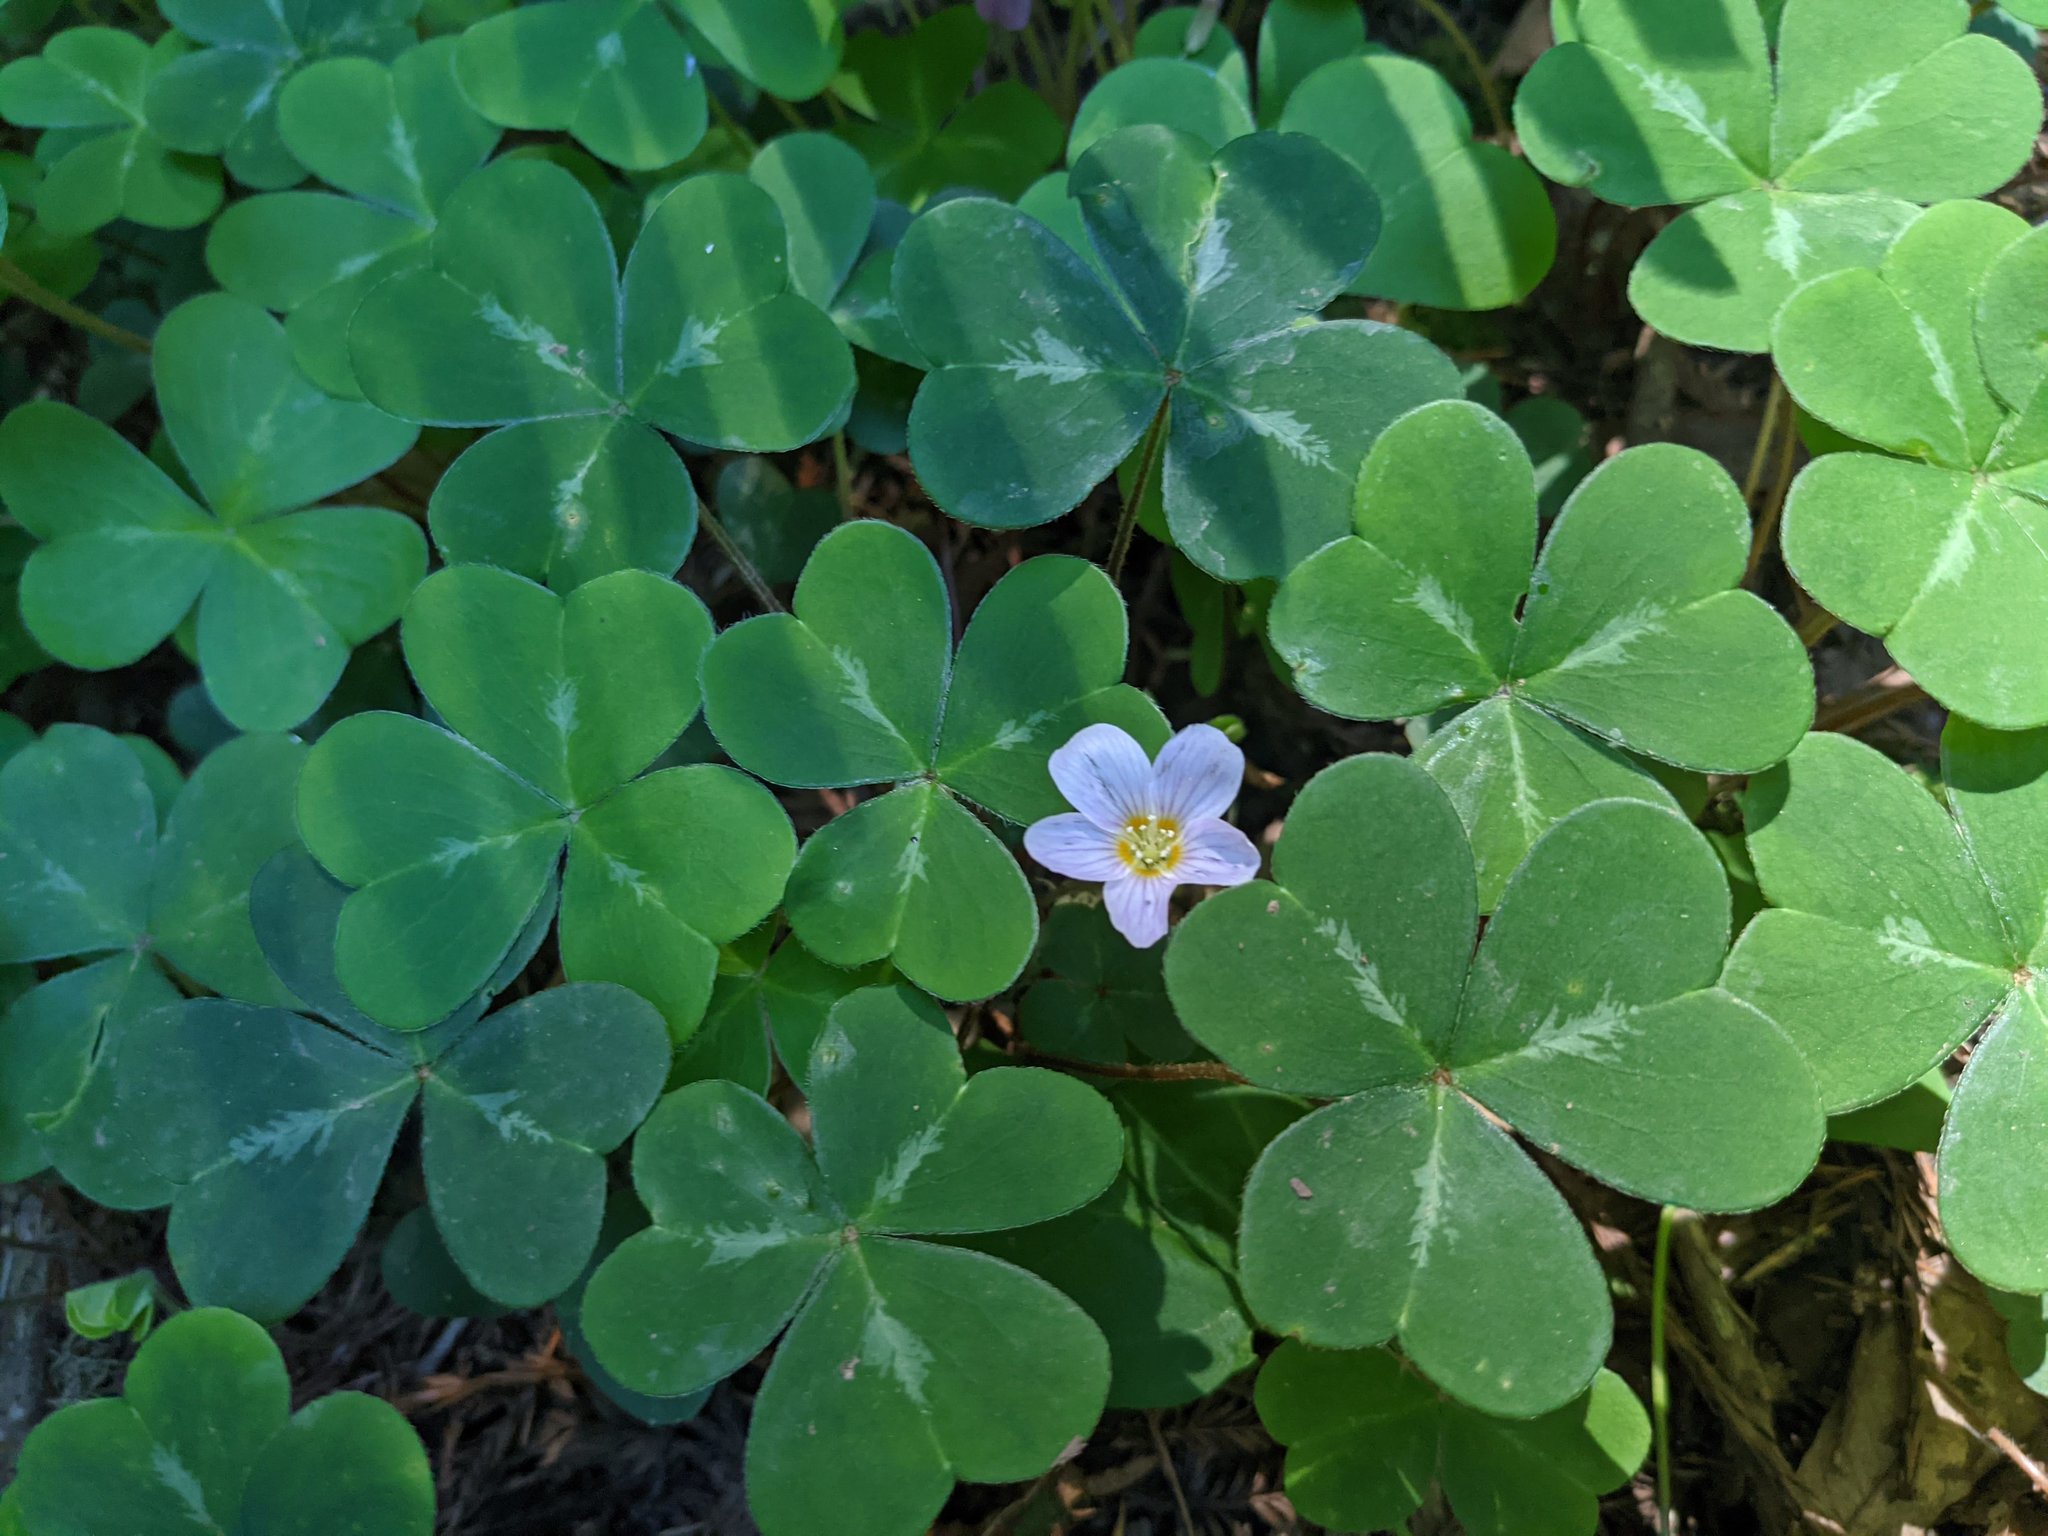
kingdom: Plantae
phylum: Tracheophyta
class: Magnoliopsida
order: Oxalidales
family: Oxalidaceae
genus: Oxalis
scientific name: Oxalis oregana
